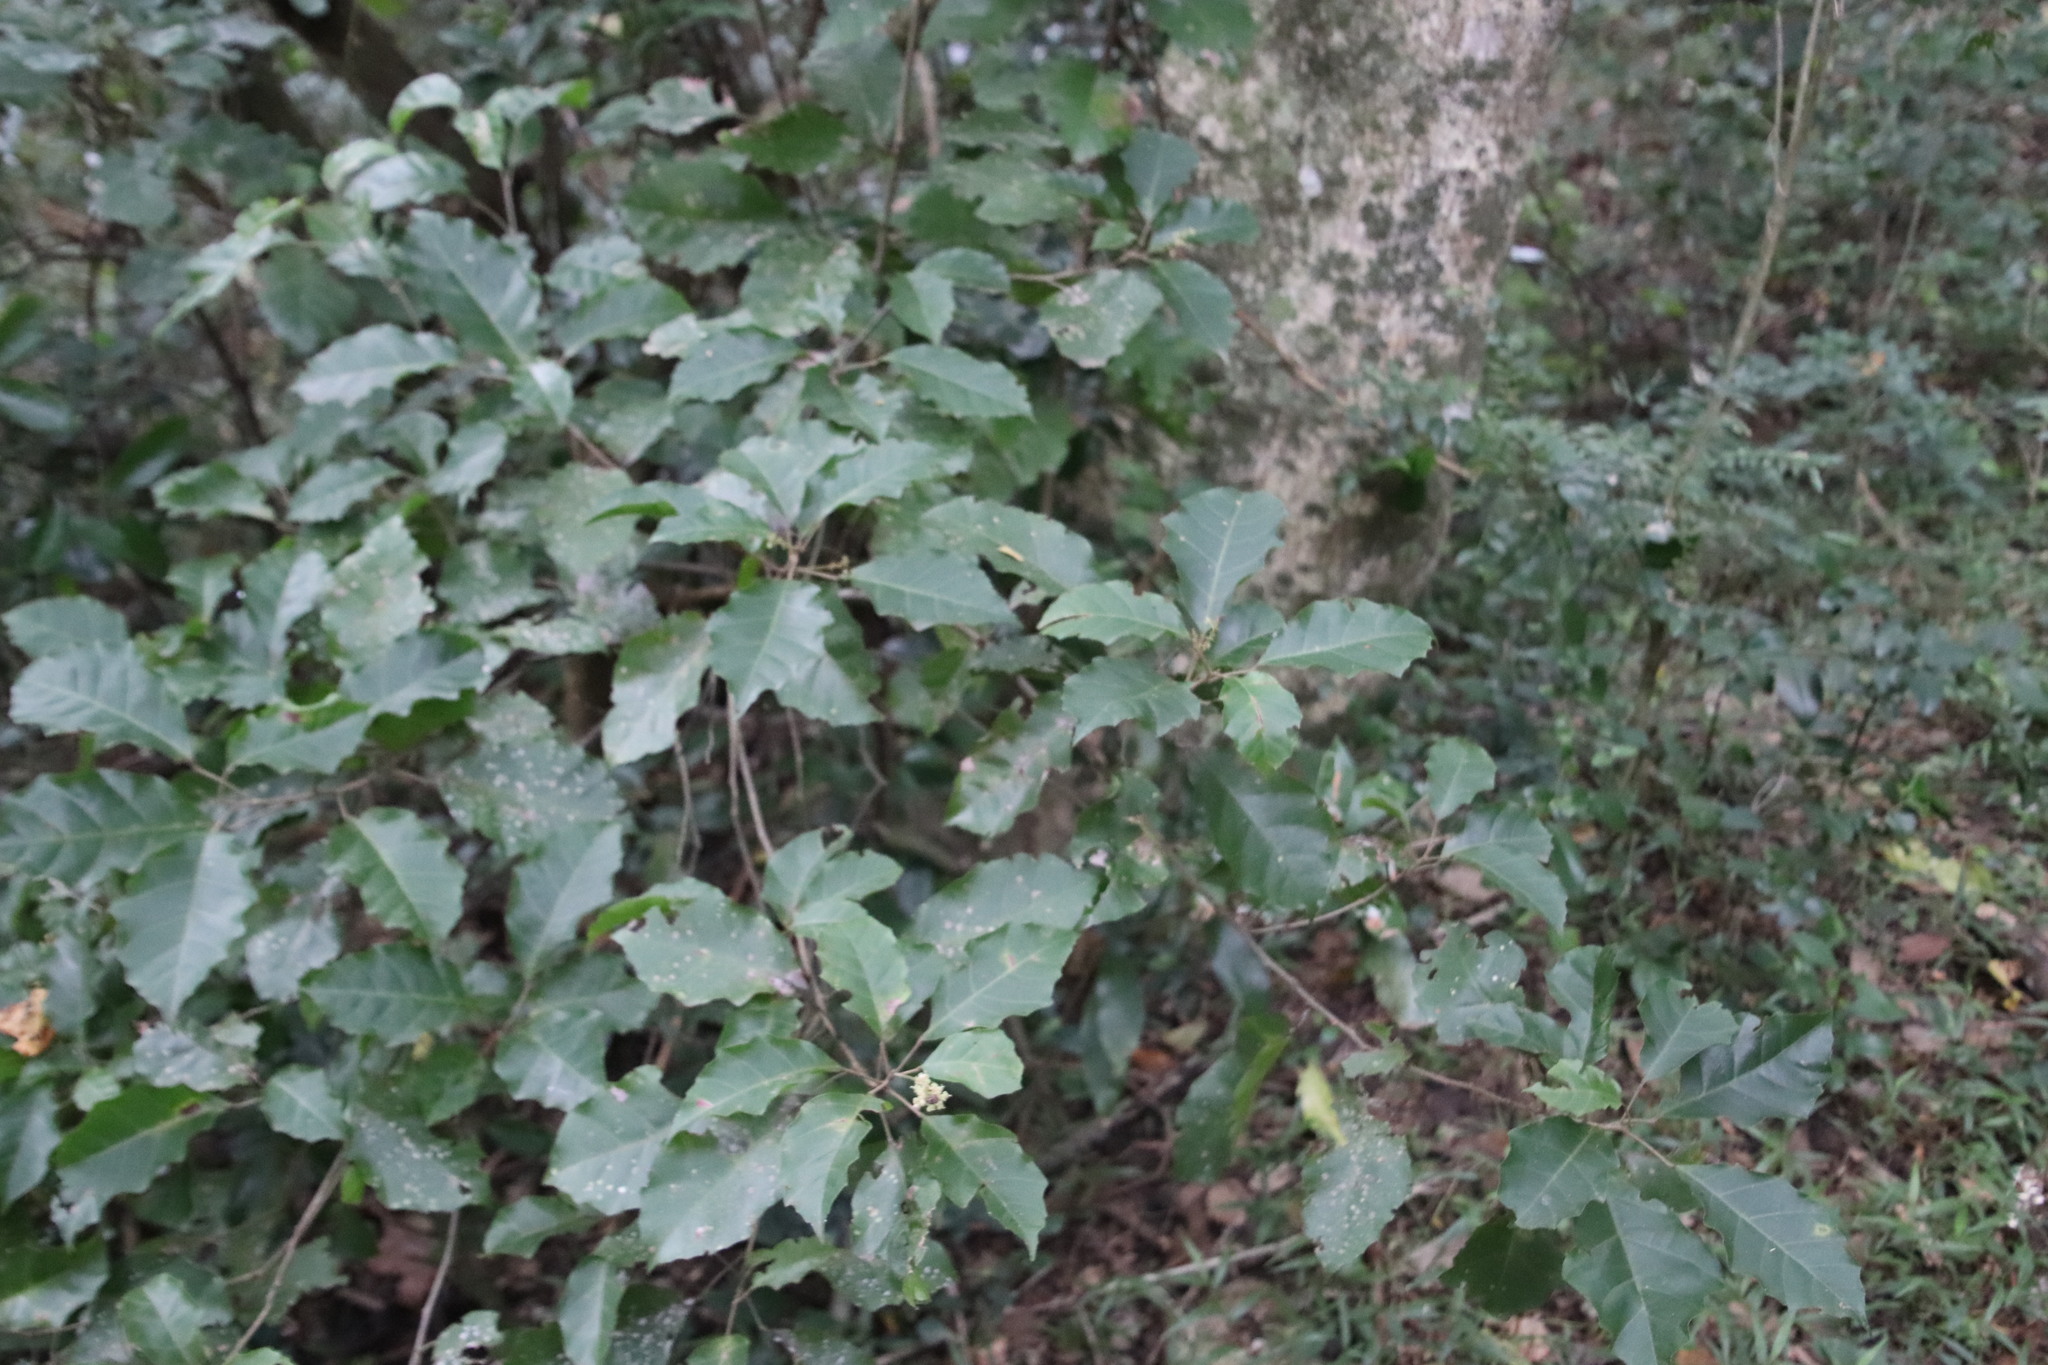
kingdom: Plantae
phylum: Tracheophyta
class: Magnoliopsida
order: Sapindales
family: Sapindaceae
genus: Allophylus
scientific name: Allophylus dregeanus
